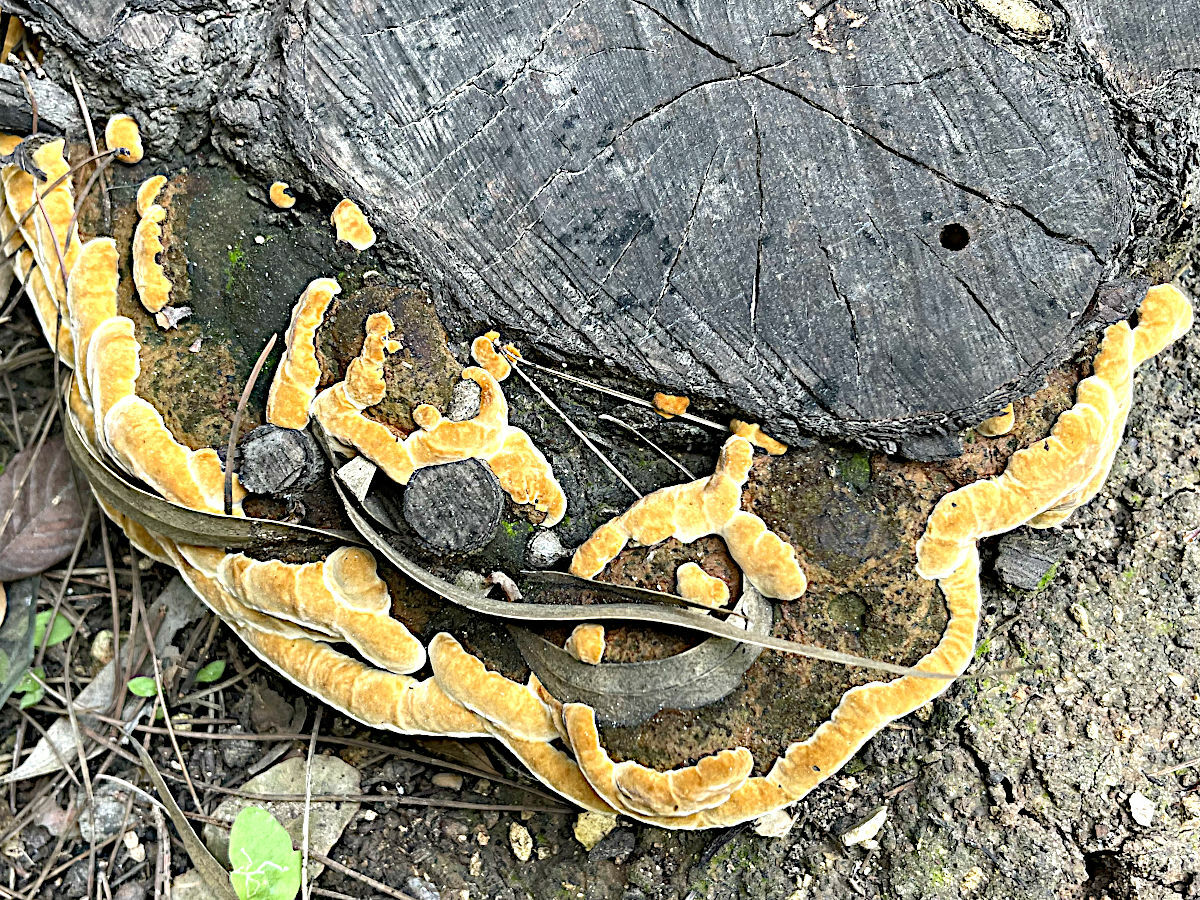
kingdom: Fungi
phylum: Basidiomycota
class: Agaricomycetes
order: Hymenochaetales
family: Hymenochaetaceae
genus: Fuscoporia
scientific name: Fuscoporia torulosa
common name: Tufted bracket
